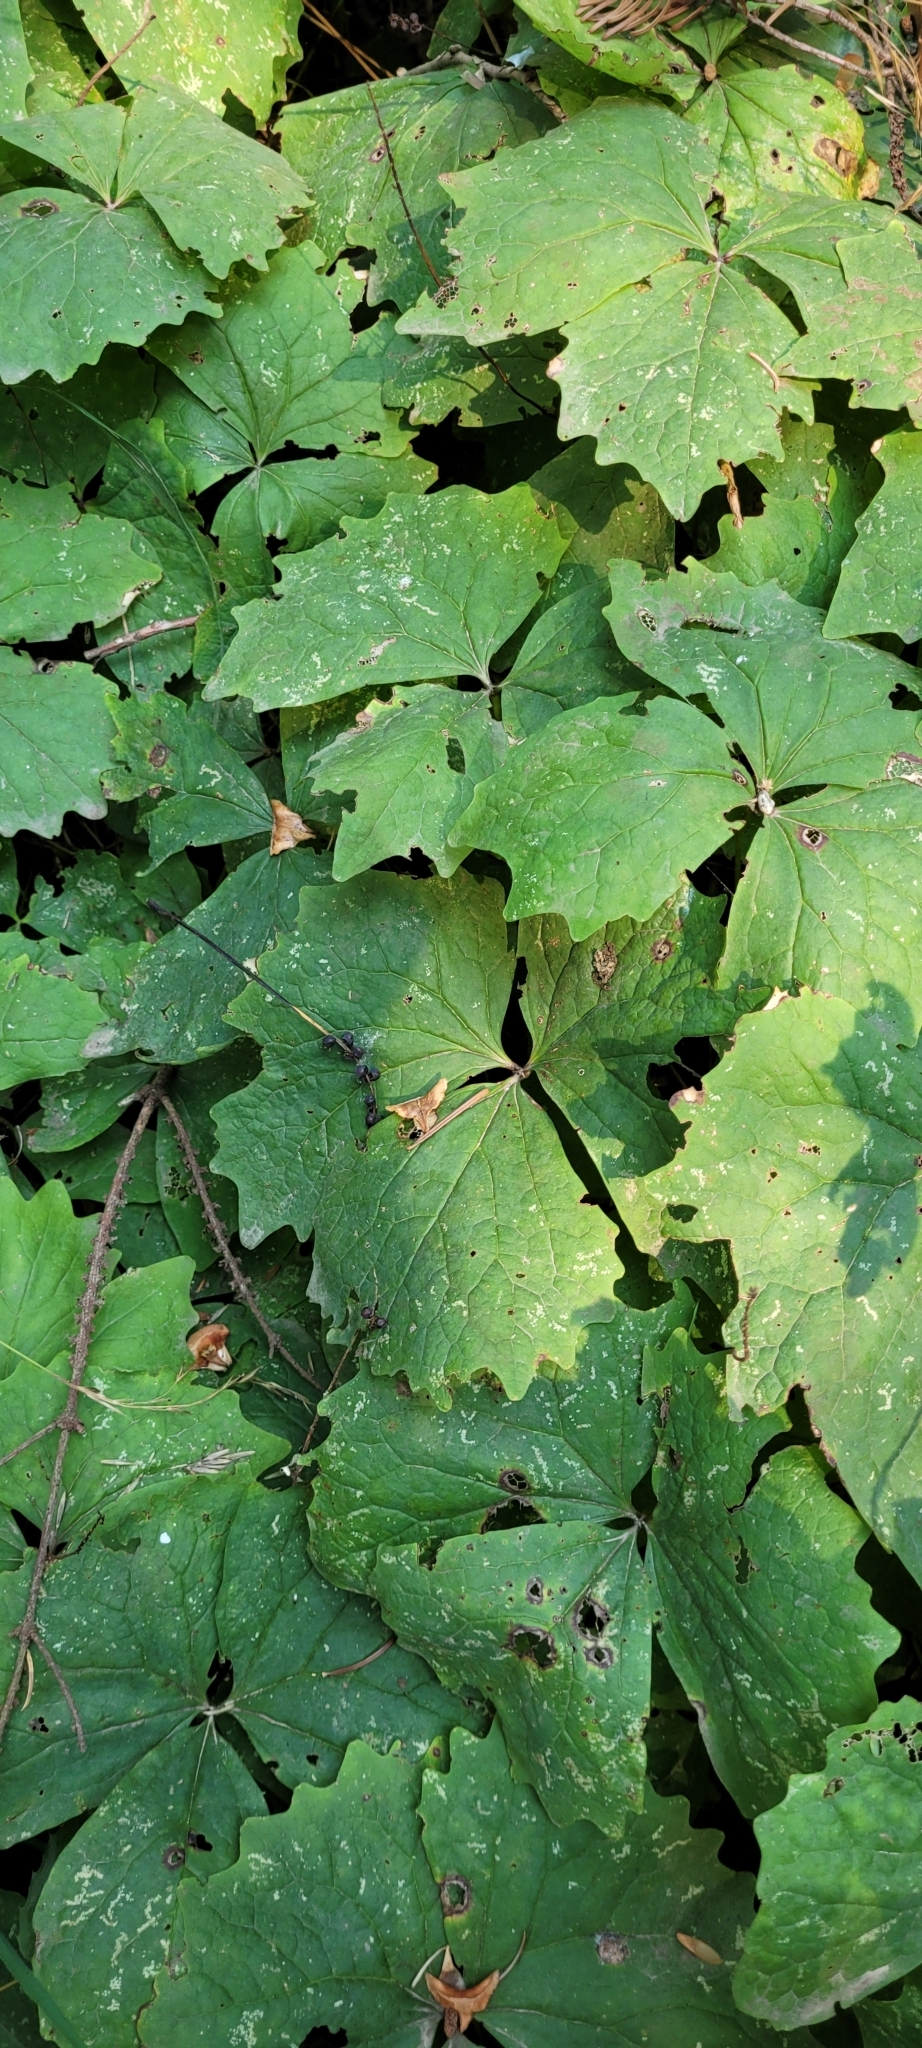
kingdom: Plantae
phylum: Tracheophyta
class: Magnoliopsida
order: Ranunculales
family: Berberidaceae
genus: Achlys
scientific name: Achlys triphylla
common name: Vanilla-leaf
